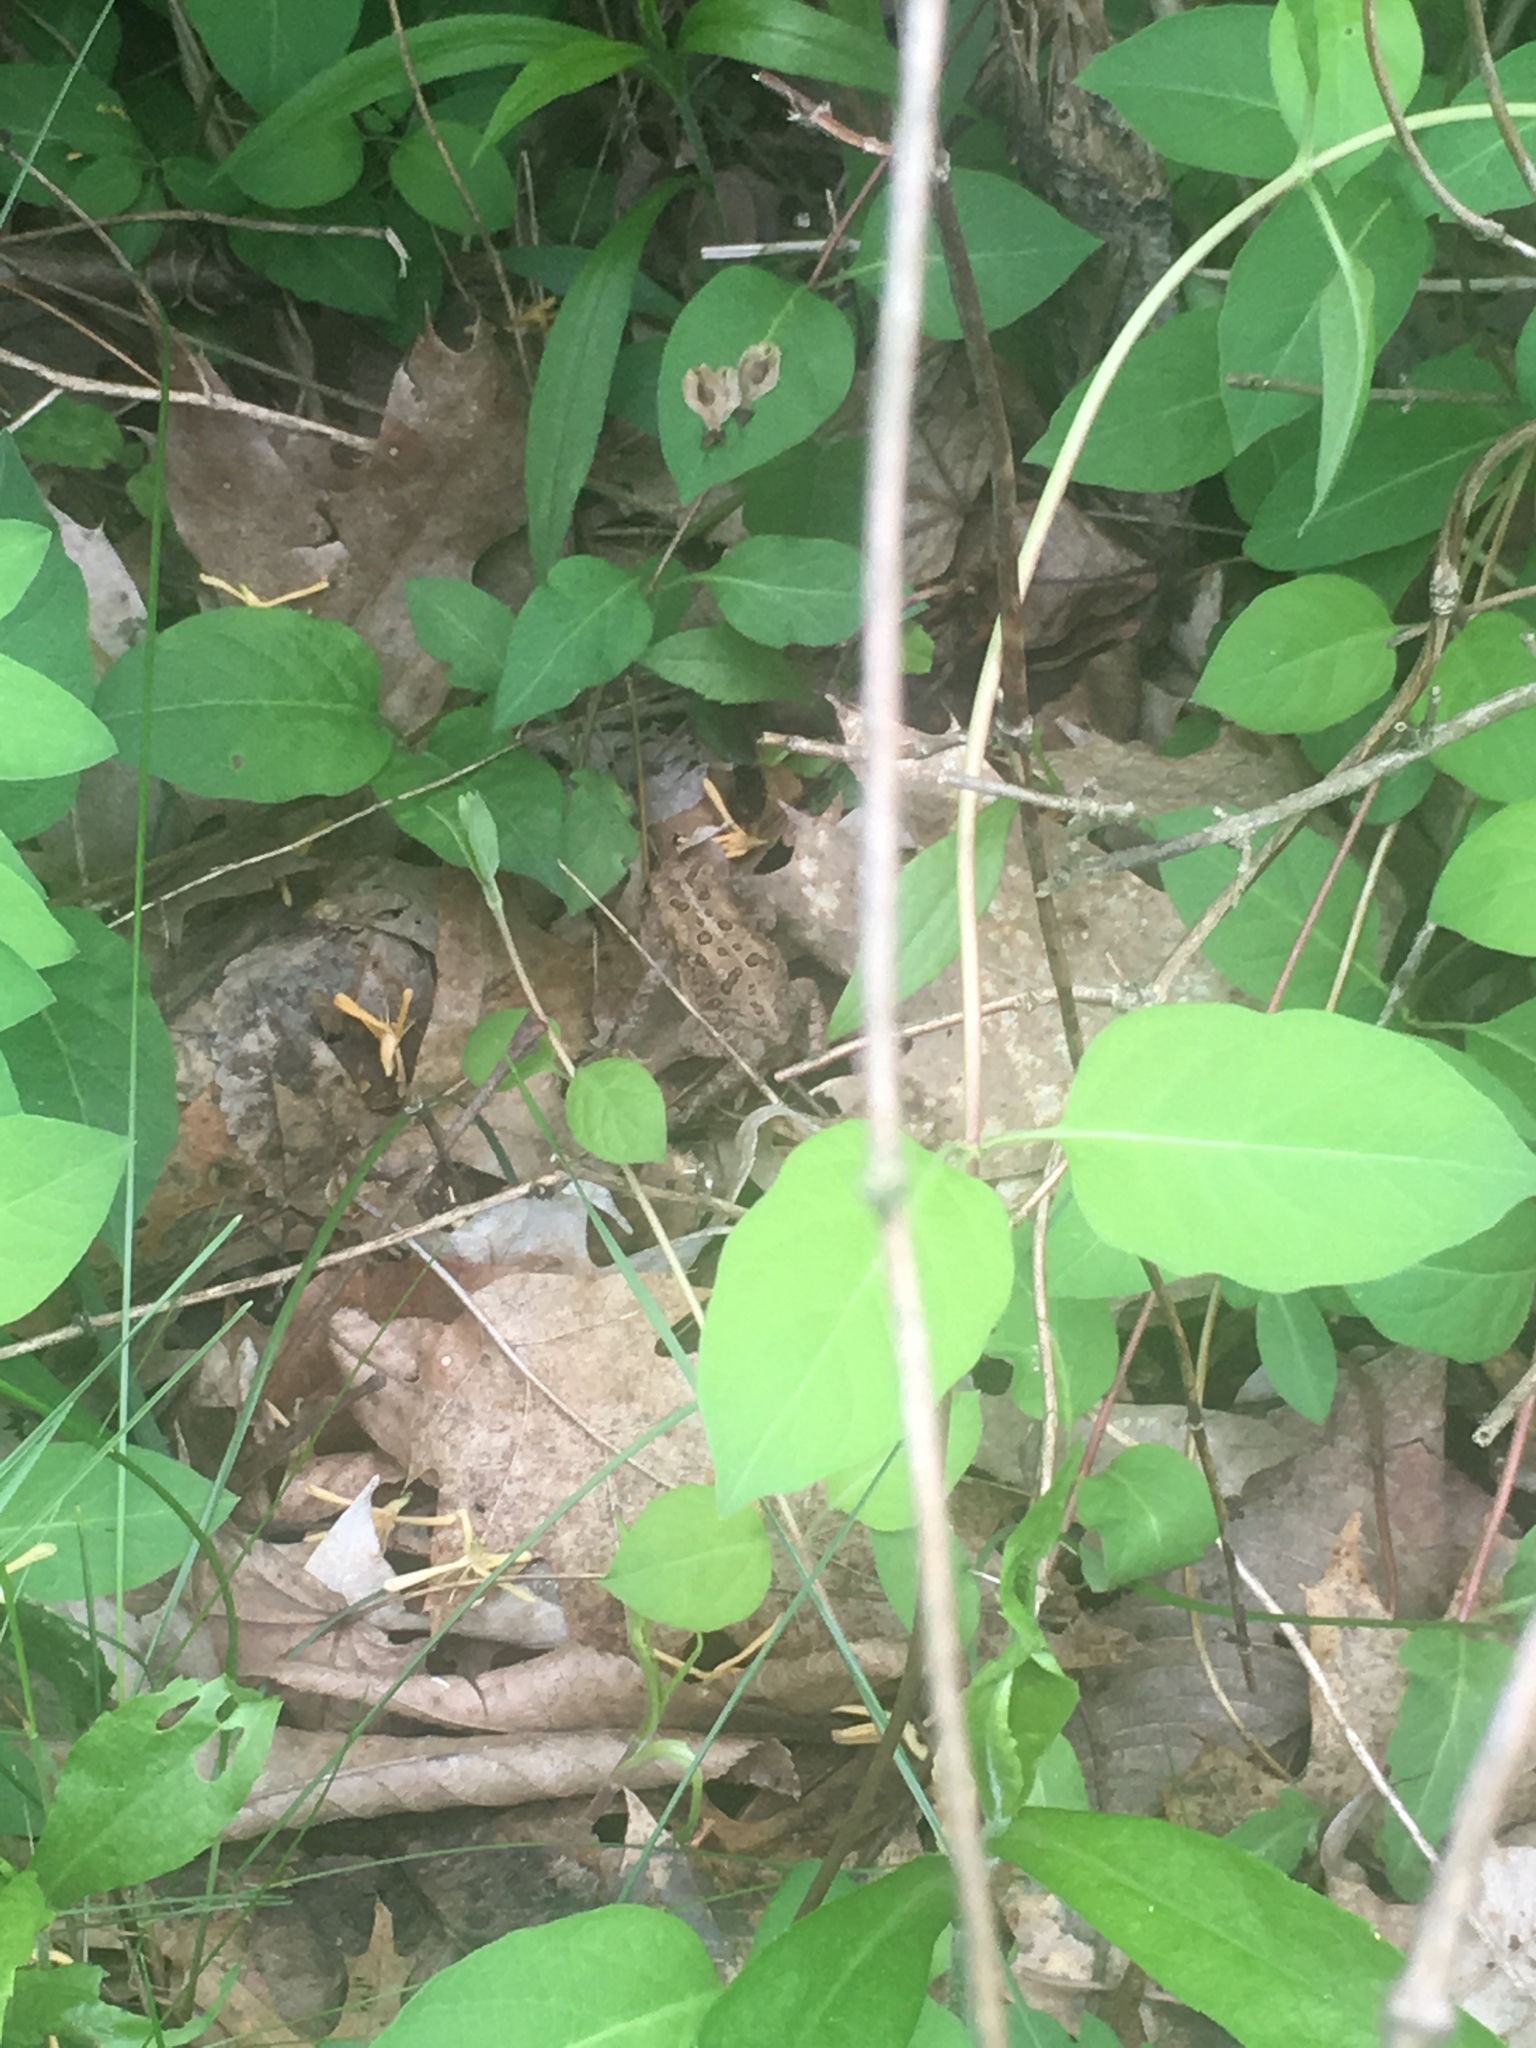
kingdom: Animalia
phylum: Chordata
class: Amphibia
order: Anura
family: Bufonidae
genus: Anaxyrus
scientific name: Anaxyrus americanus
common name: American toad
